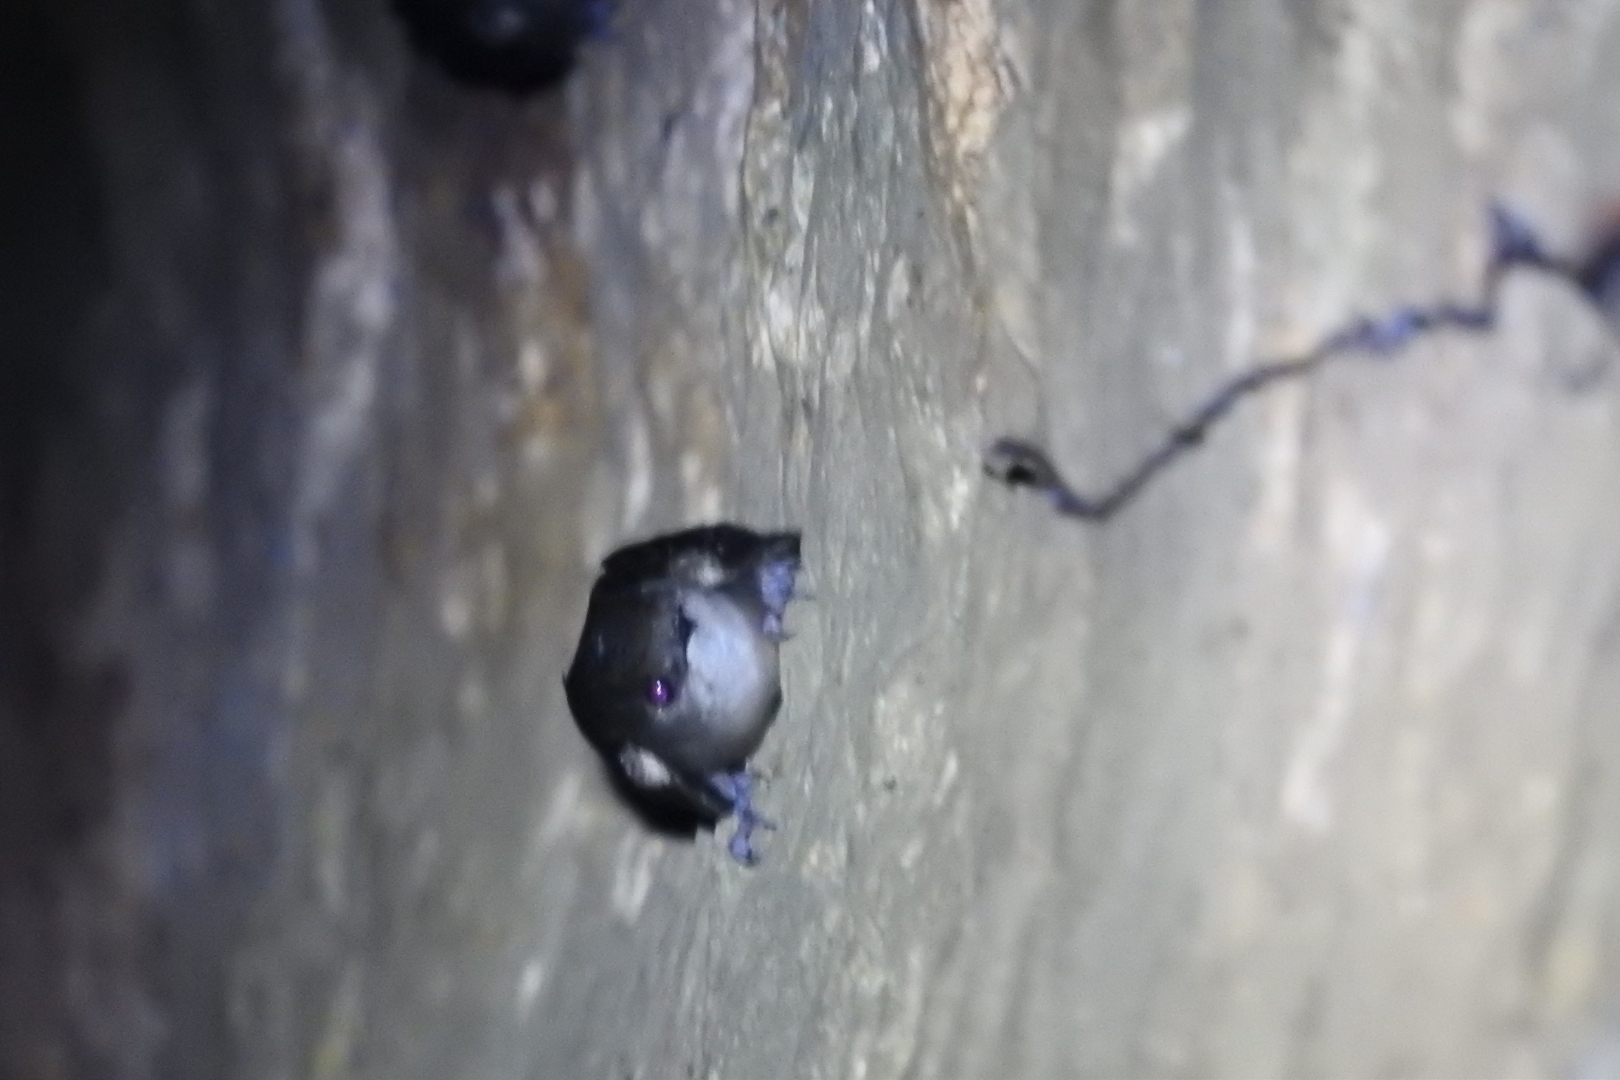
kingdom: Animalia
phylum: Chordata
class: Aves
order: Apodiformes
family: Apodidae
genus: Chaetura
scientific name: Chaetura pelagica
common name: Chimney swift
